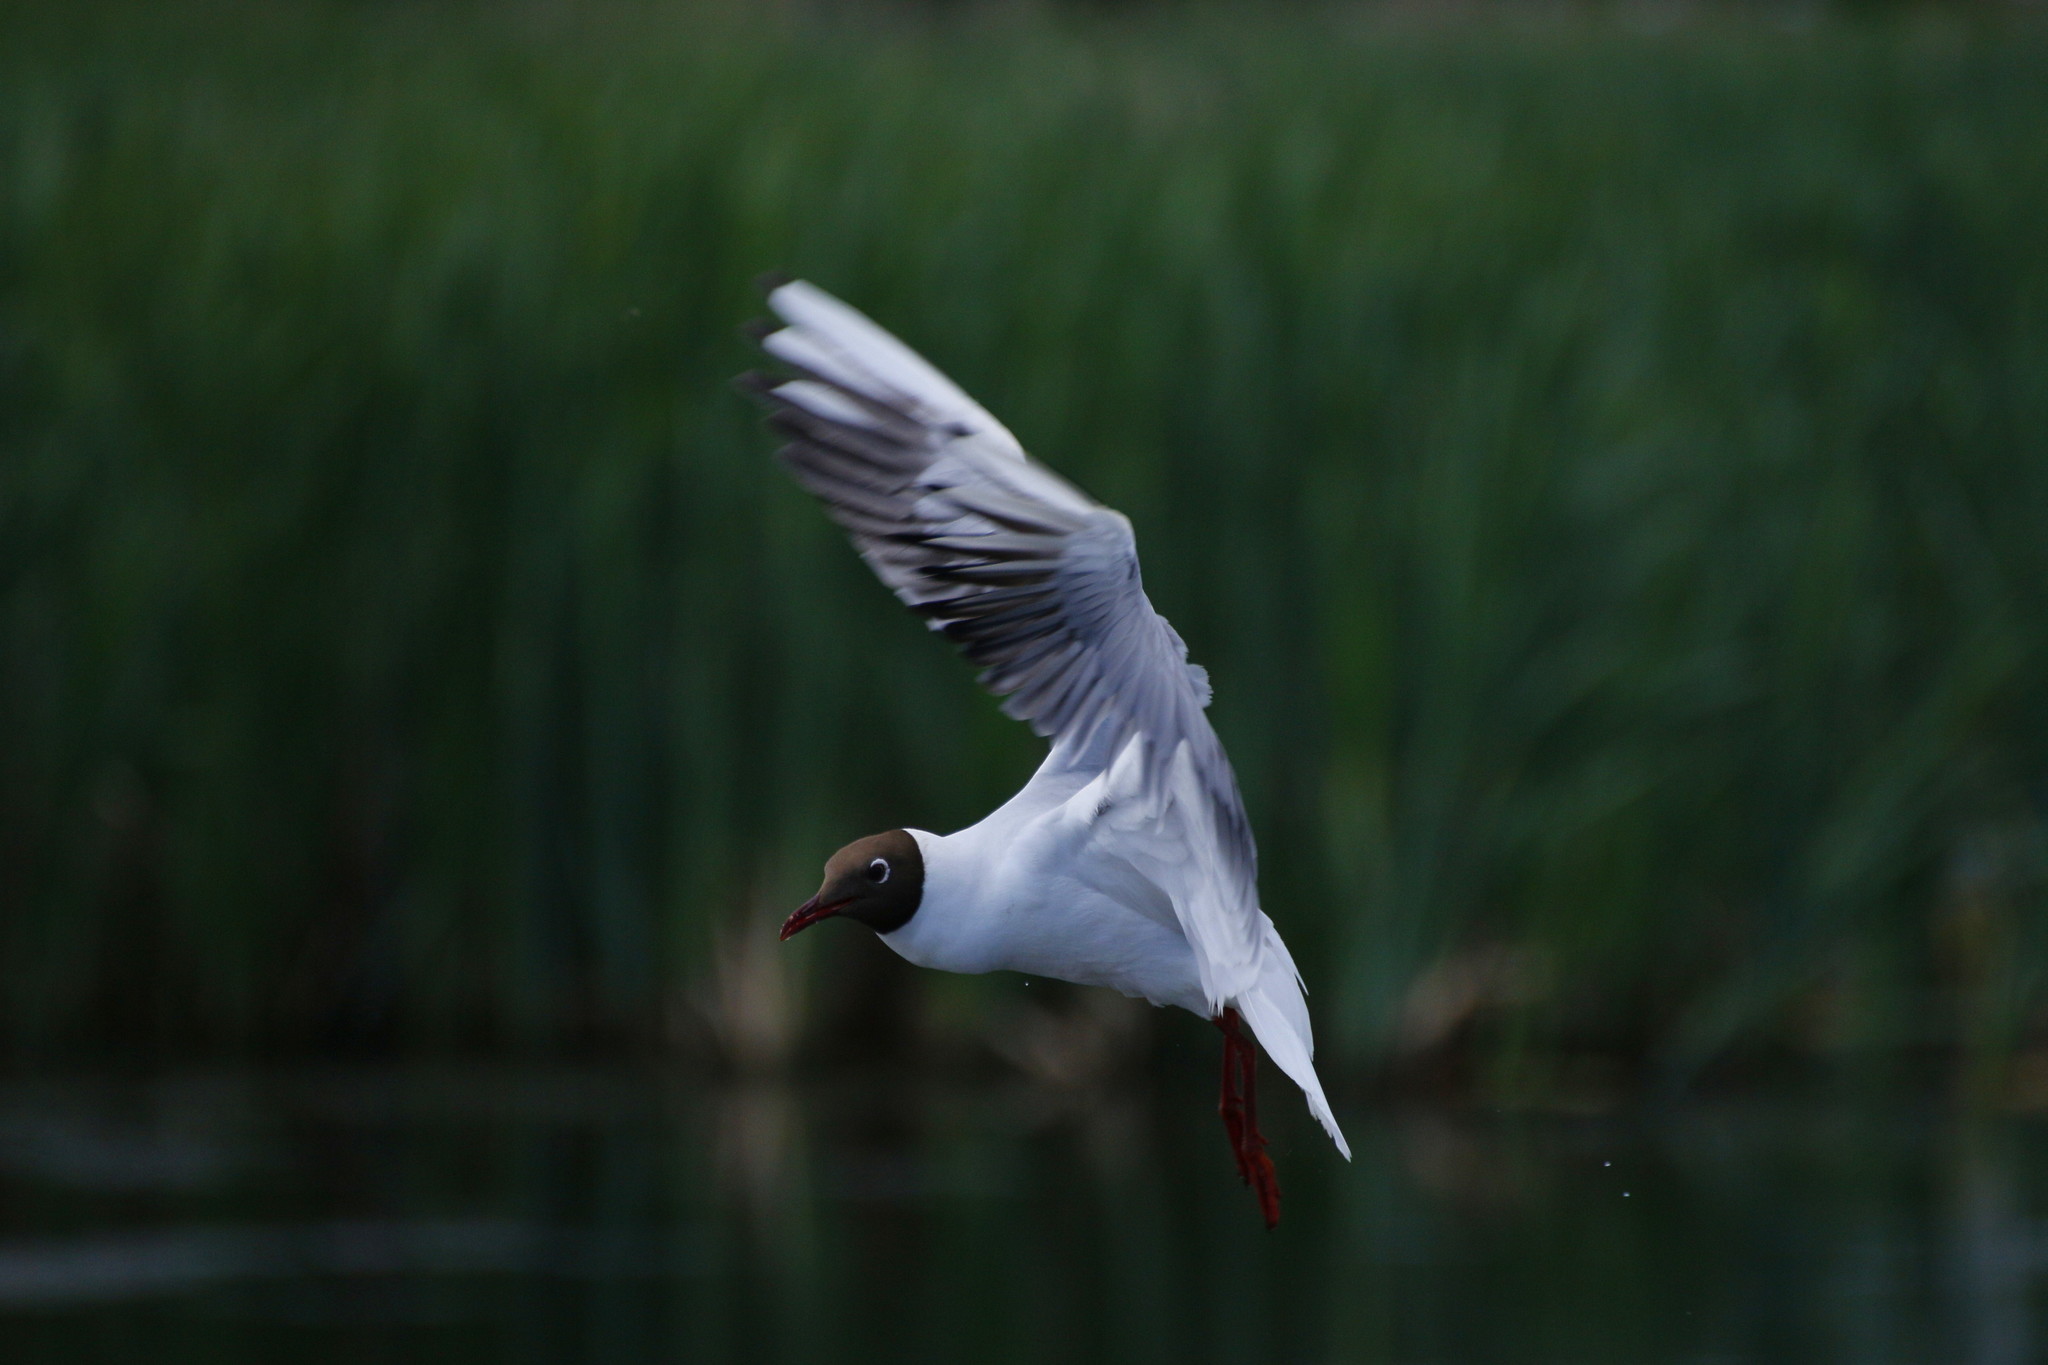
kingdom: Animalia
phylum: Chordata
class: Aves
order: Charadriiformes
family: Laridae
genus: Chroicocephalus
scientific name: Chroicocephalus ridibundus
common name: Black-headed gull
